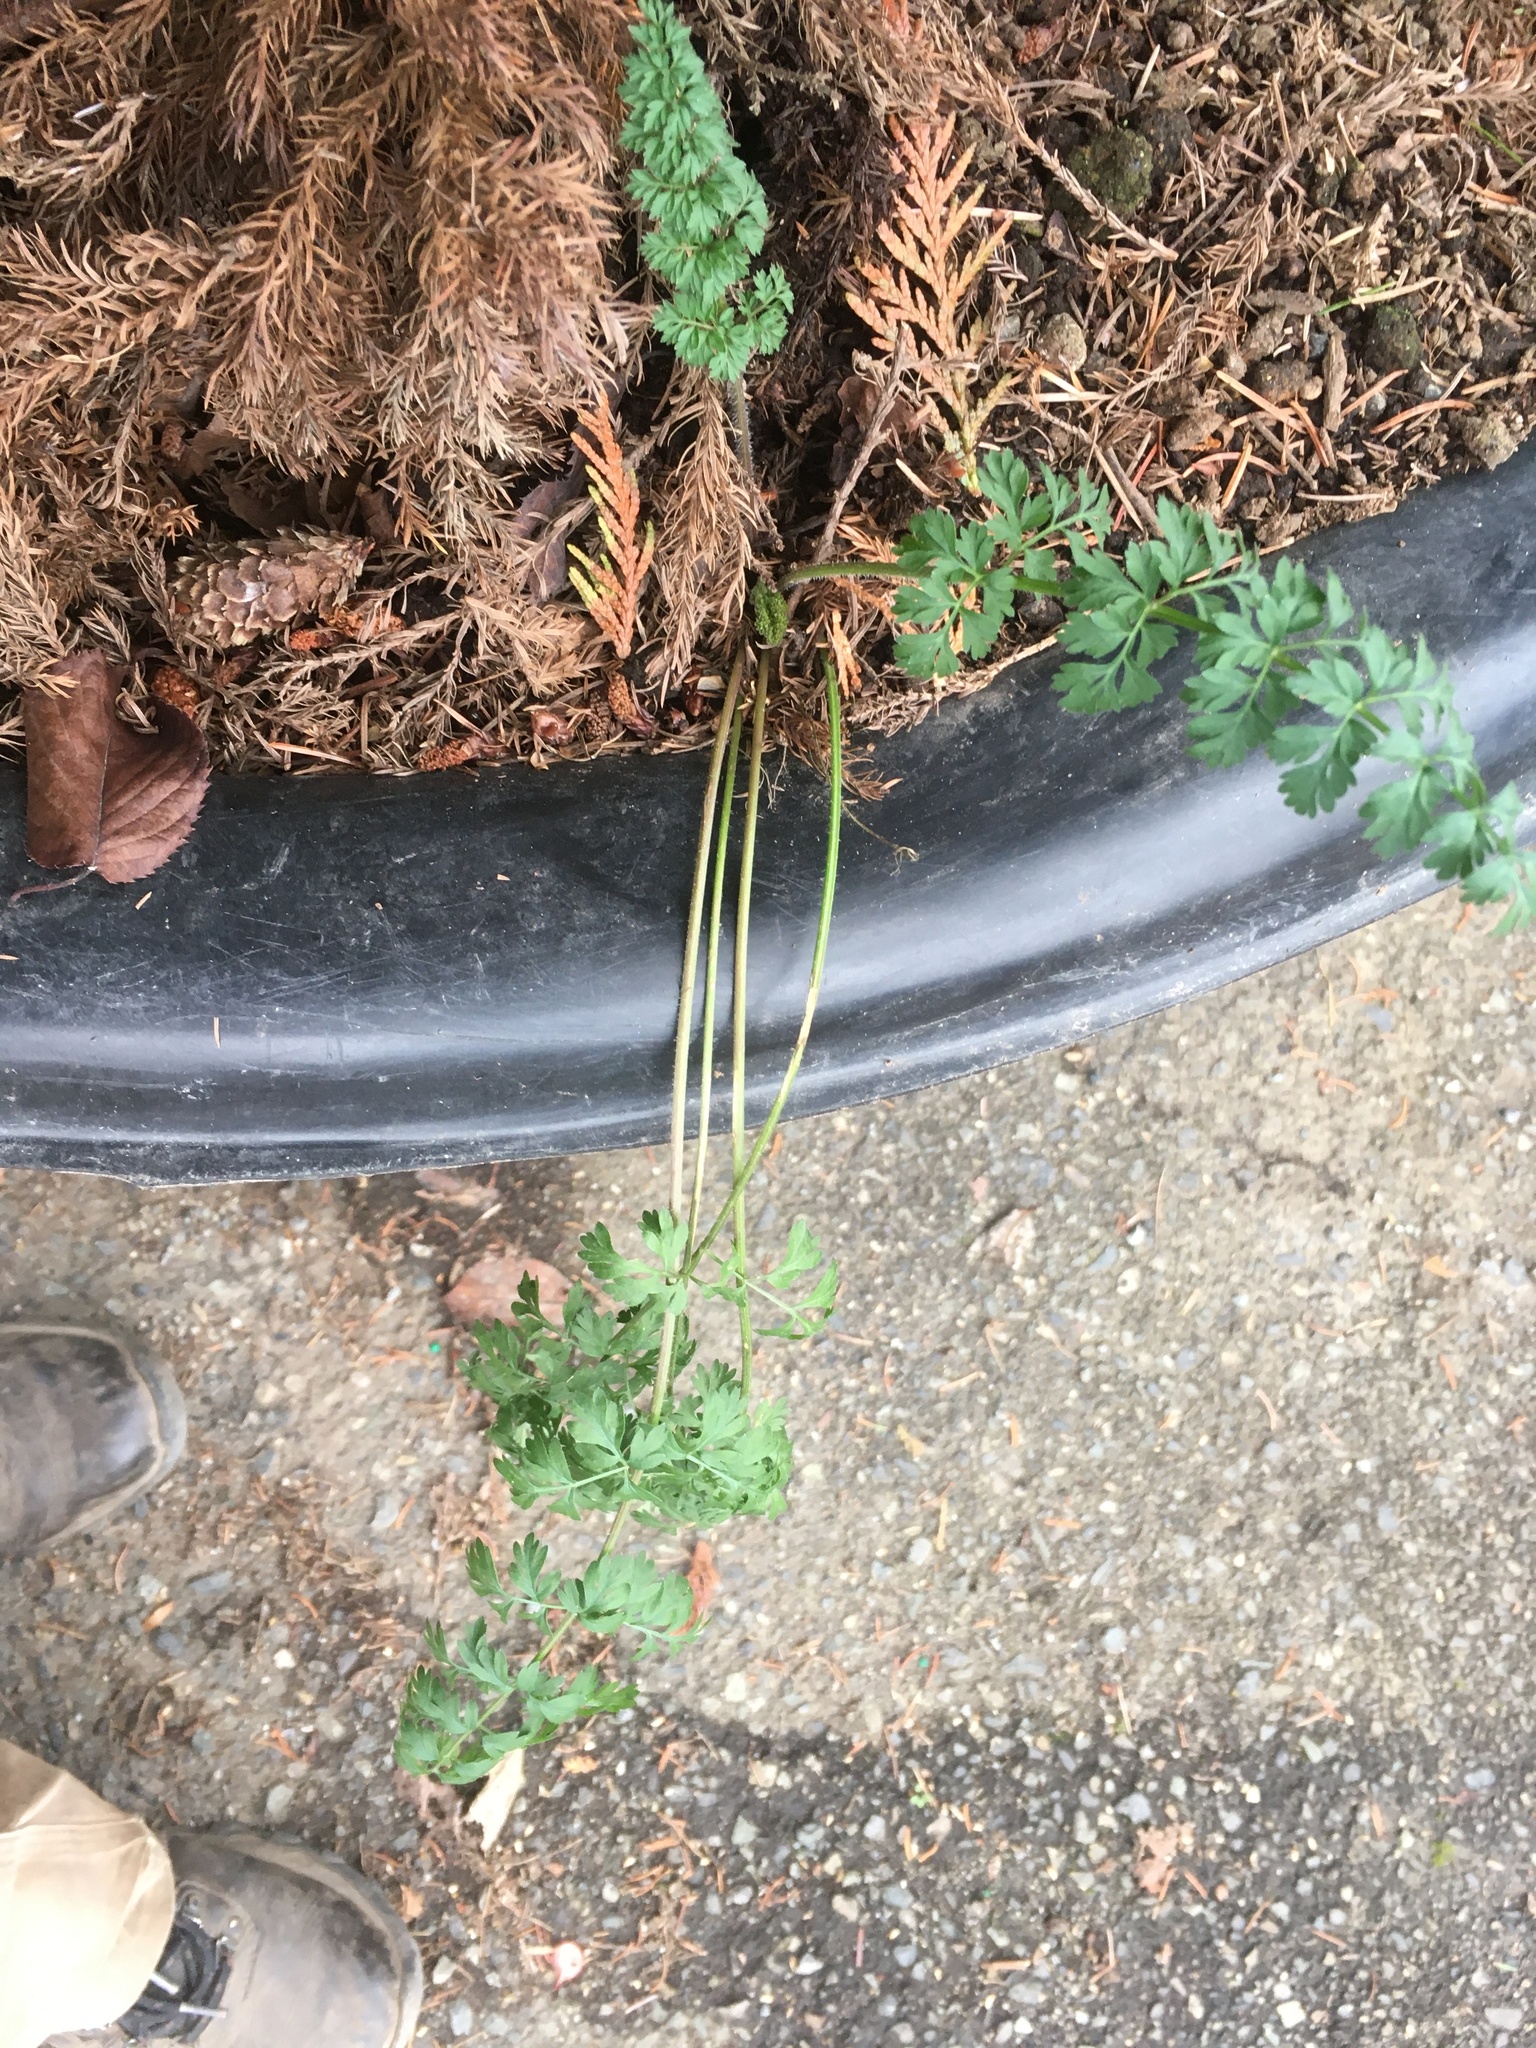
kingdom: Plantae
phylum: Tracheophyta
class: Magnoliopsida
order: Apiales
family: Apiaceae
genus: Daucus
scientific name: Daucus carota
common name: Wild carrot
